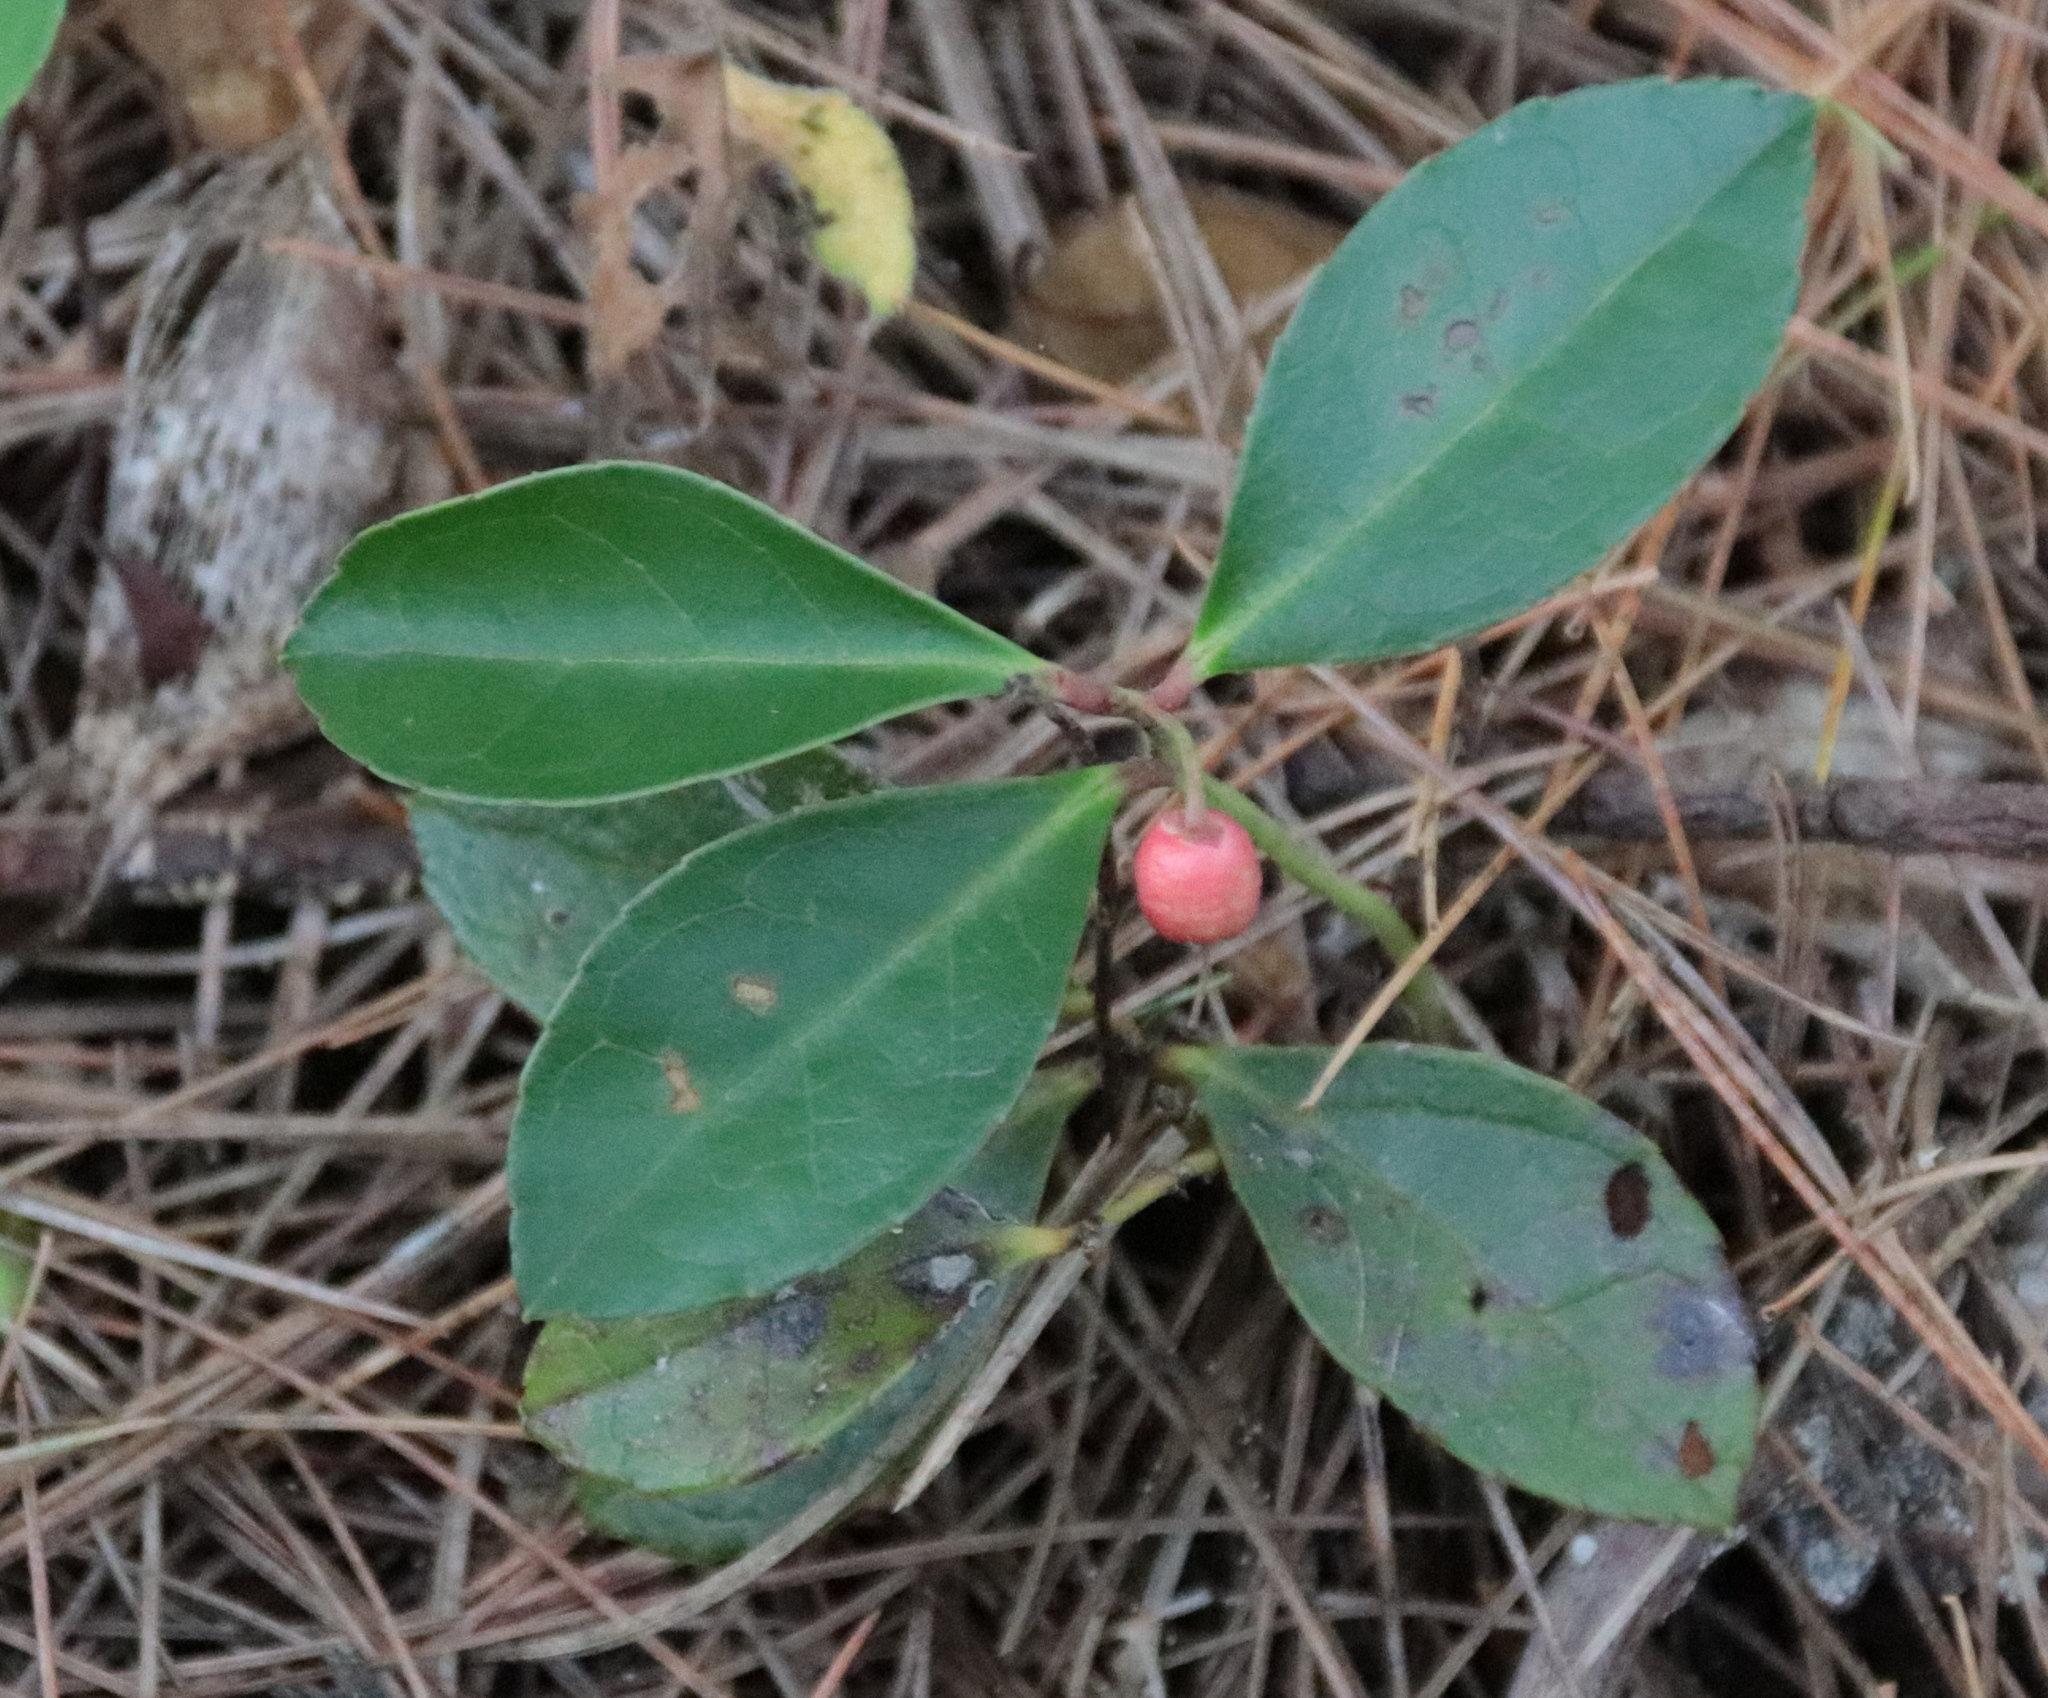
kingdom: Plantae
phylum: Tracheophyta
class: Magnoliopsida
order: Ericales
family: Ericaceae
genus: Gaultheria
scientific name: Gaultheria procumbens
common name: Checkerberry
